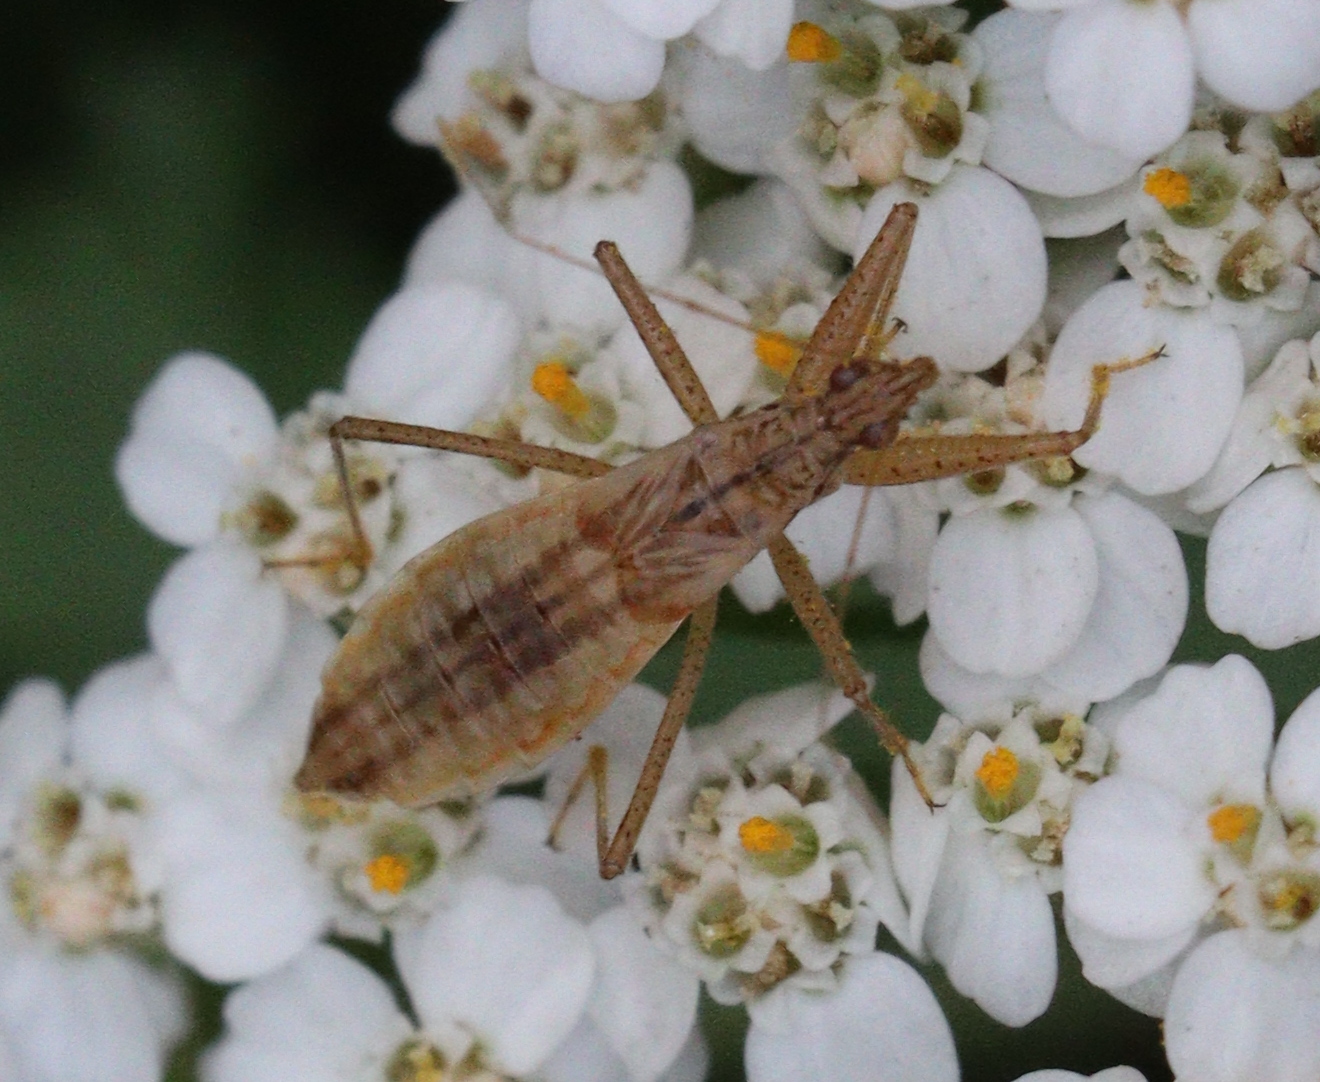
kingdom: Animalia
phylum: Arthropoda
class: Insecta
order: Hemiptera
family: Nabidae
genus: Nabis
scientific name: Nabis limbatus
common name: Marsh damselbug
